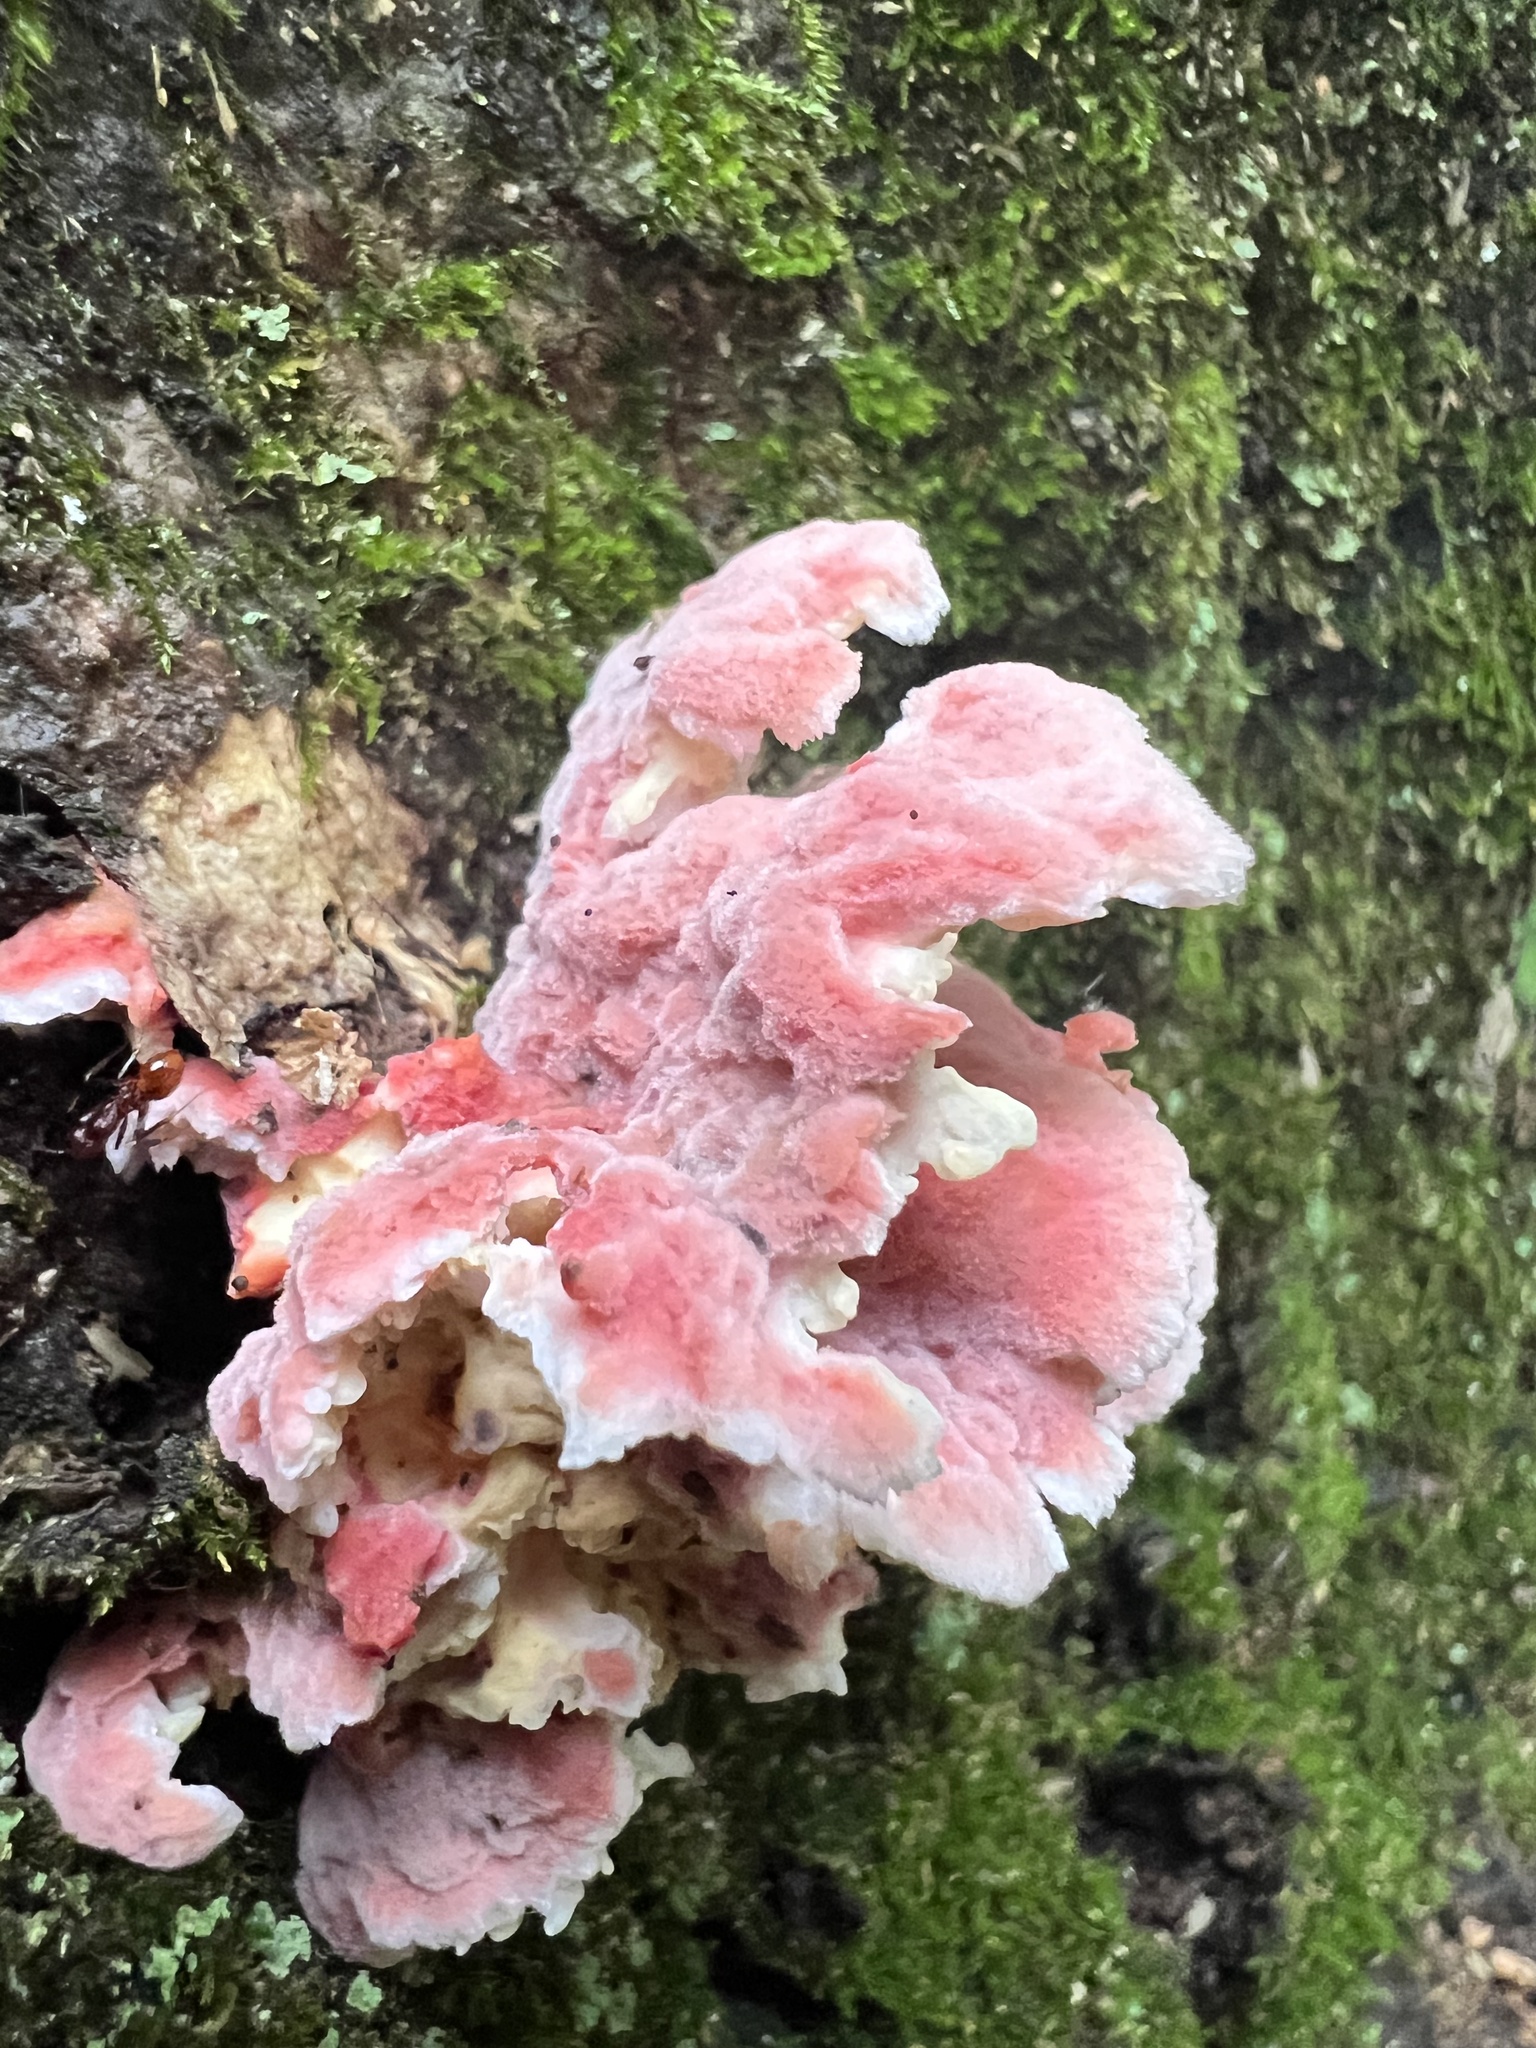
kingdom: Fungi
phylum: Basidiomycota
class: Agaricomycetes
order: Polyporales
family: Irpicaceae
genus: Byssomerulius
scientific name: Byssomerulius incarnatus
